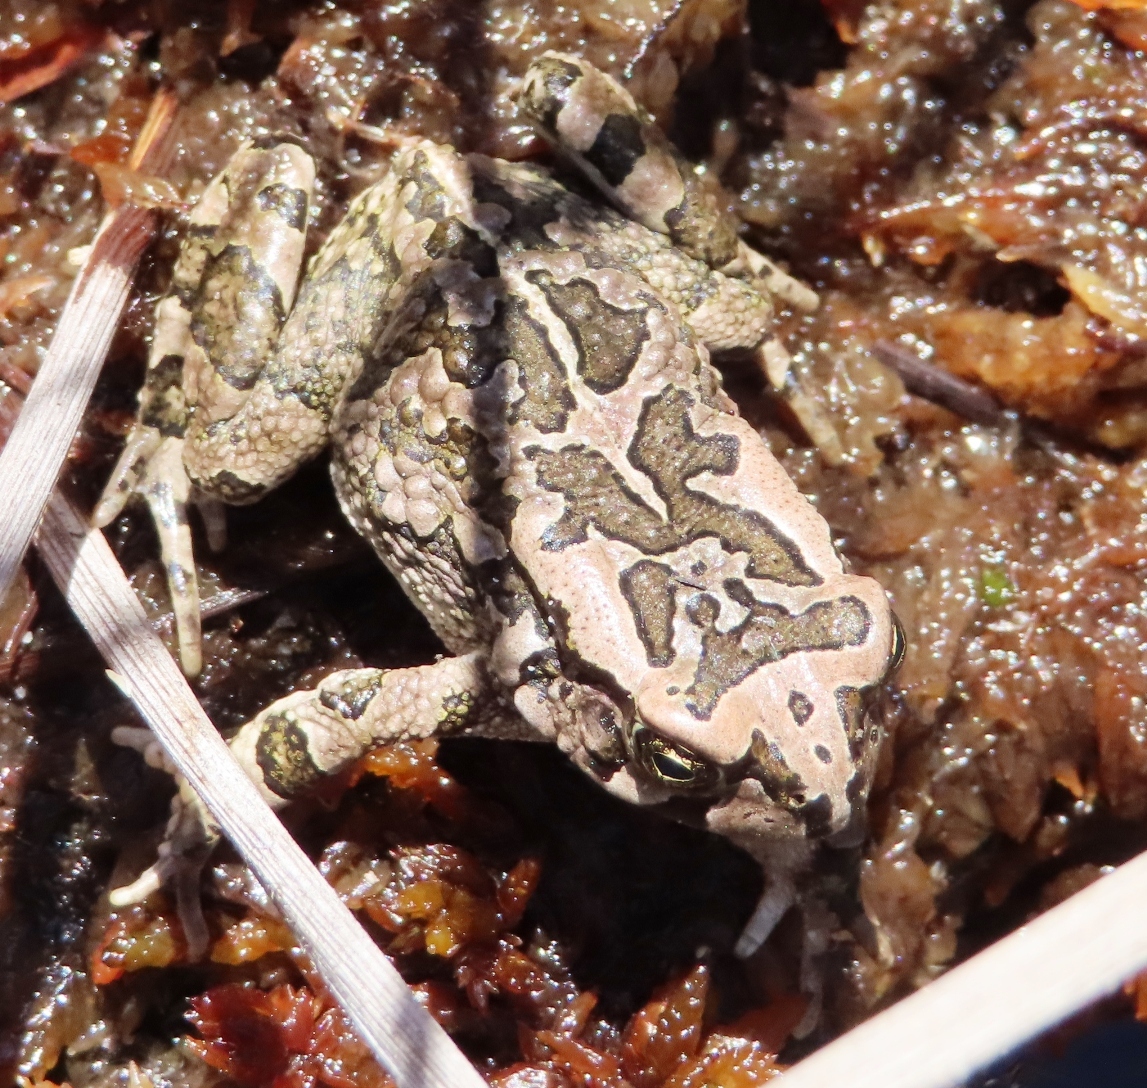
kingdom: Animalia
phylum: Chordata
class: Amphibia
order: Anura
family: Bufonidae
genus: Sclerophrys
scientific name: Sclerophrys capensis
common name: Ranger’s toad
